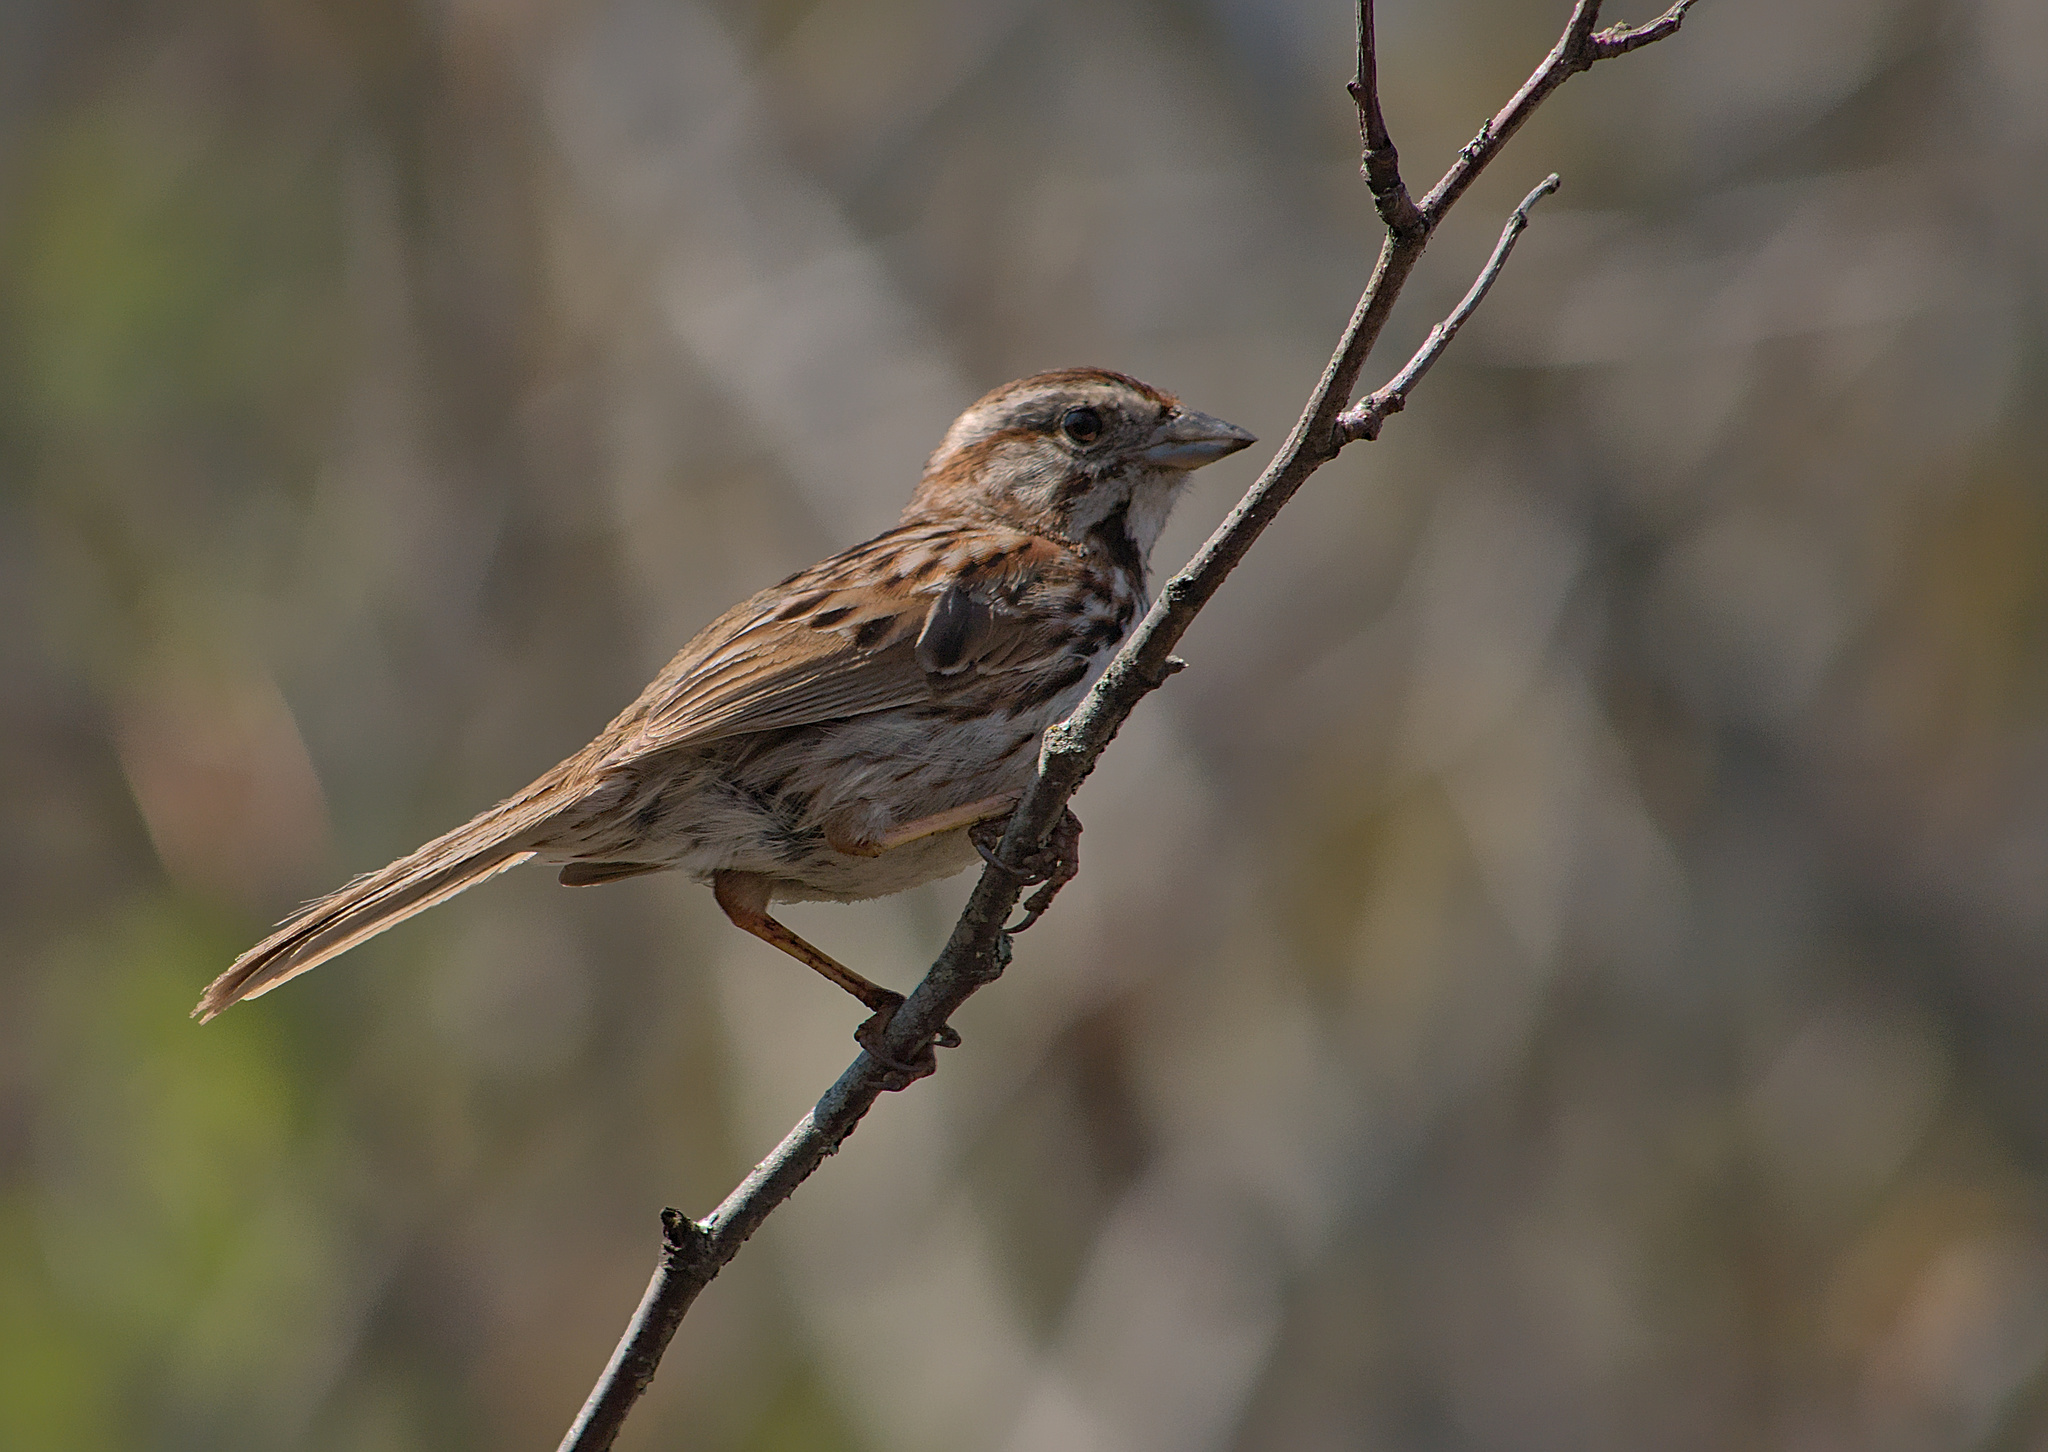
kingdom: Animalia
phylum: Chordata
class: Aves
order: Passeriformes
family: Passerellidae
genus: Melospiza
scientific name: Melospiza melodia
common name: Song sparrow
